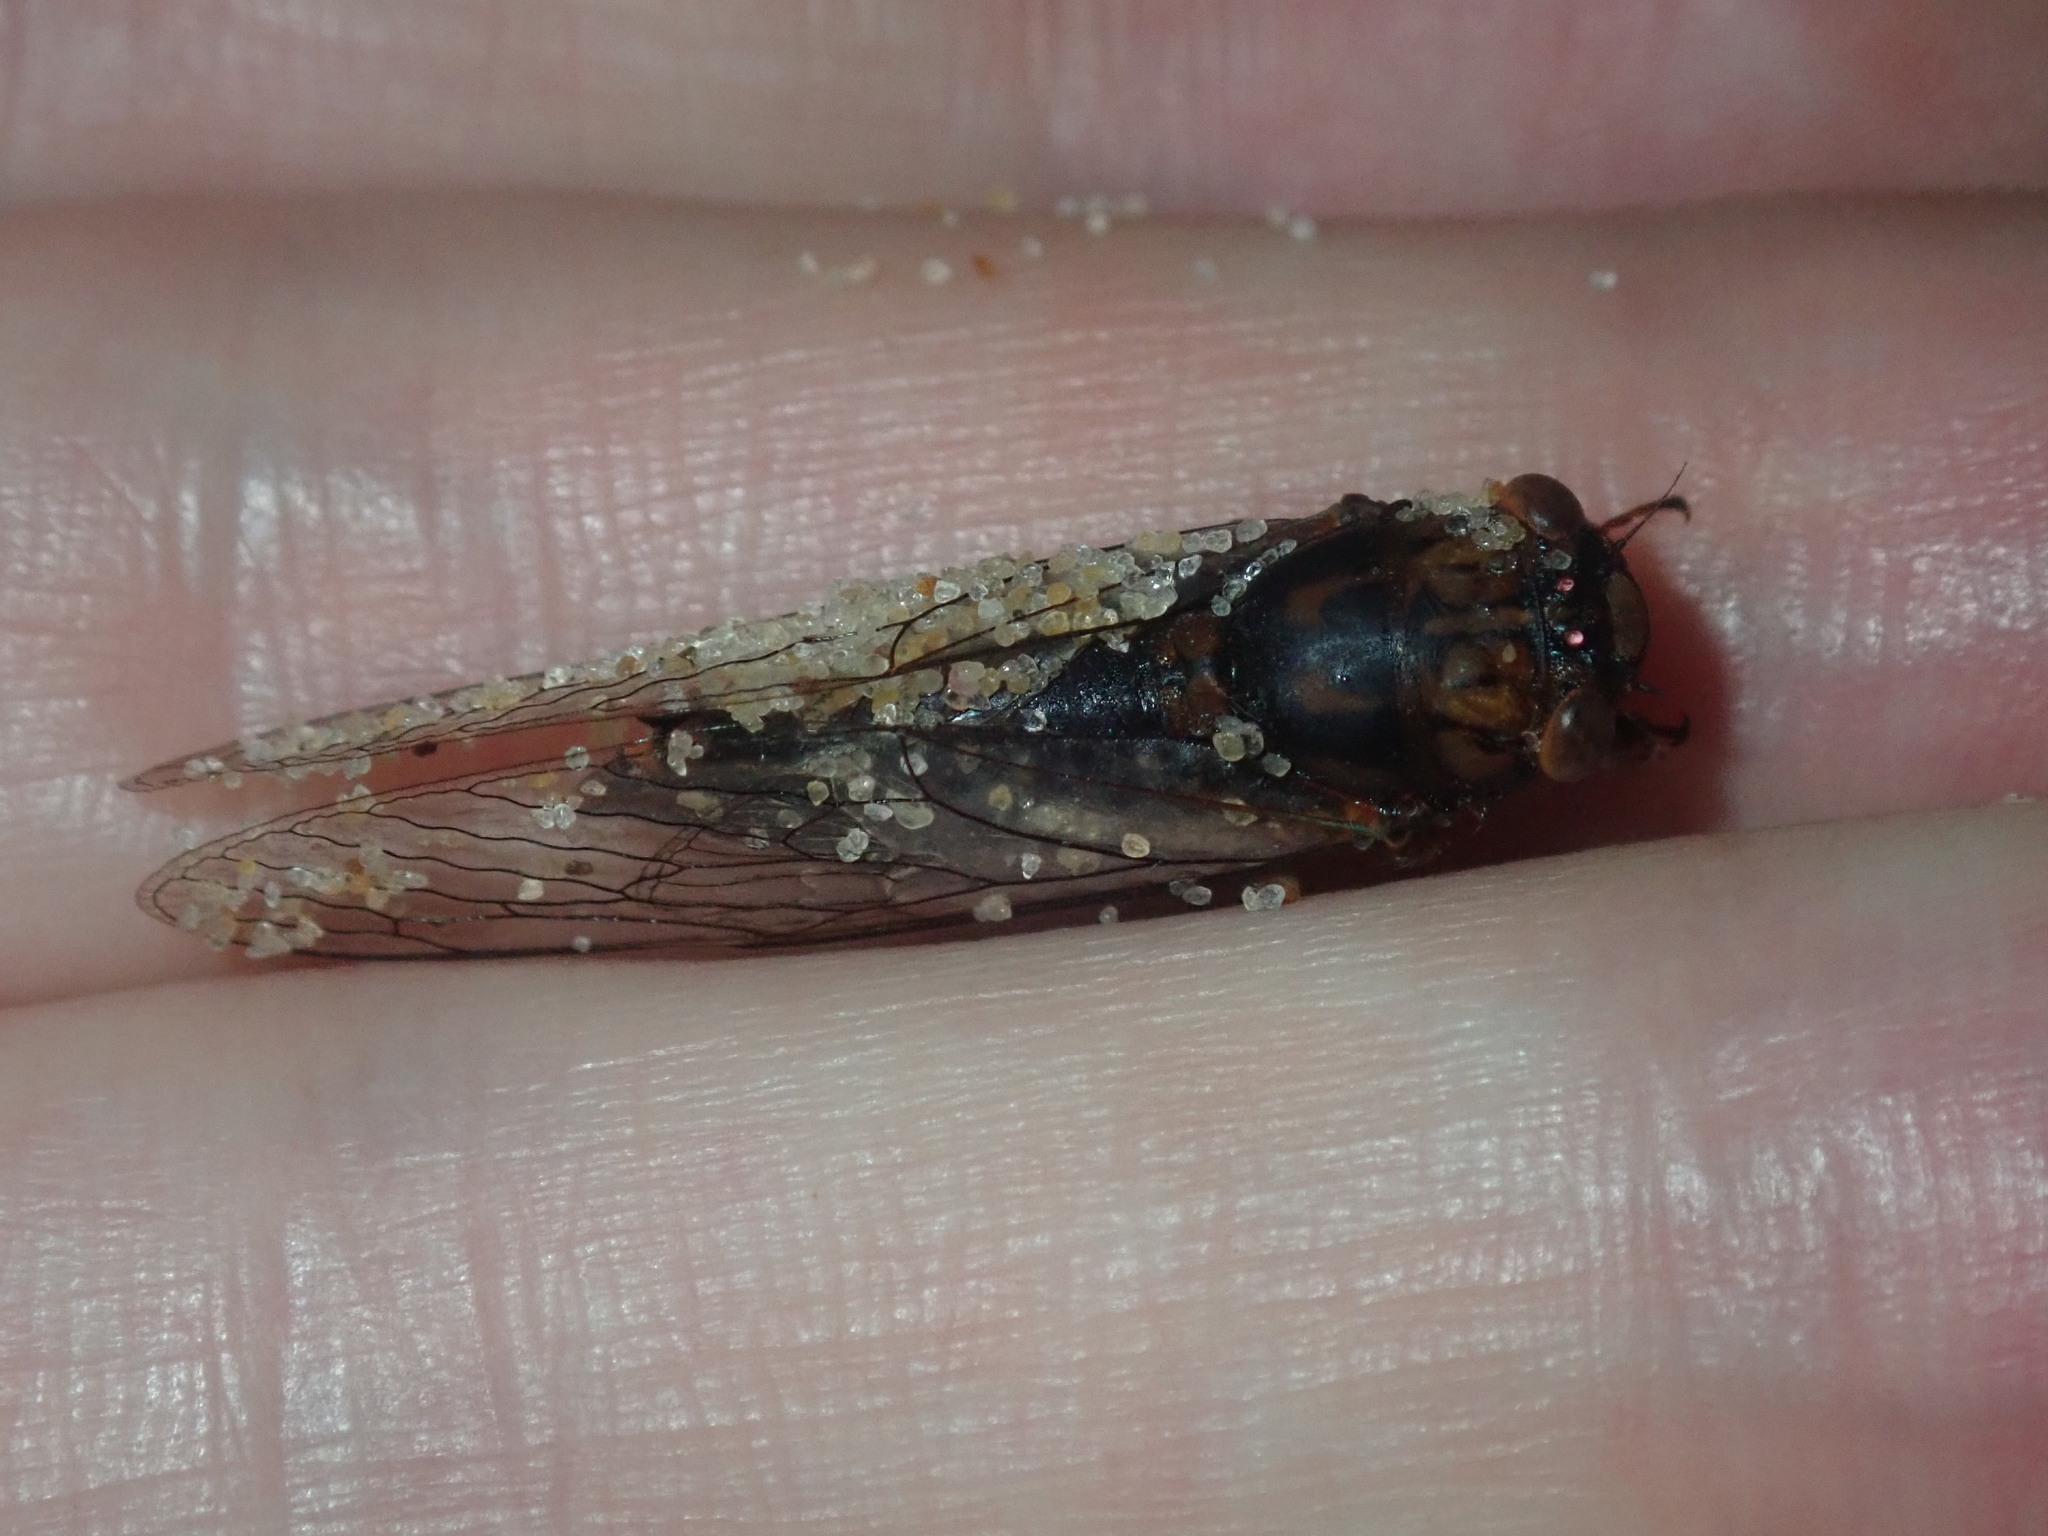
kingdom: Animalia
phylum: Arthropoda
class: Insecta
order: Hemiptera
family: Cicadidae
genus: Yoyetta
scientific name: Yoyetta timothyi
